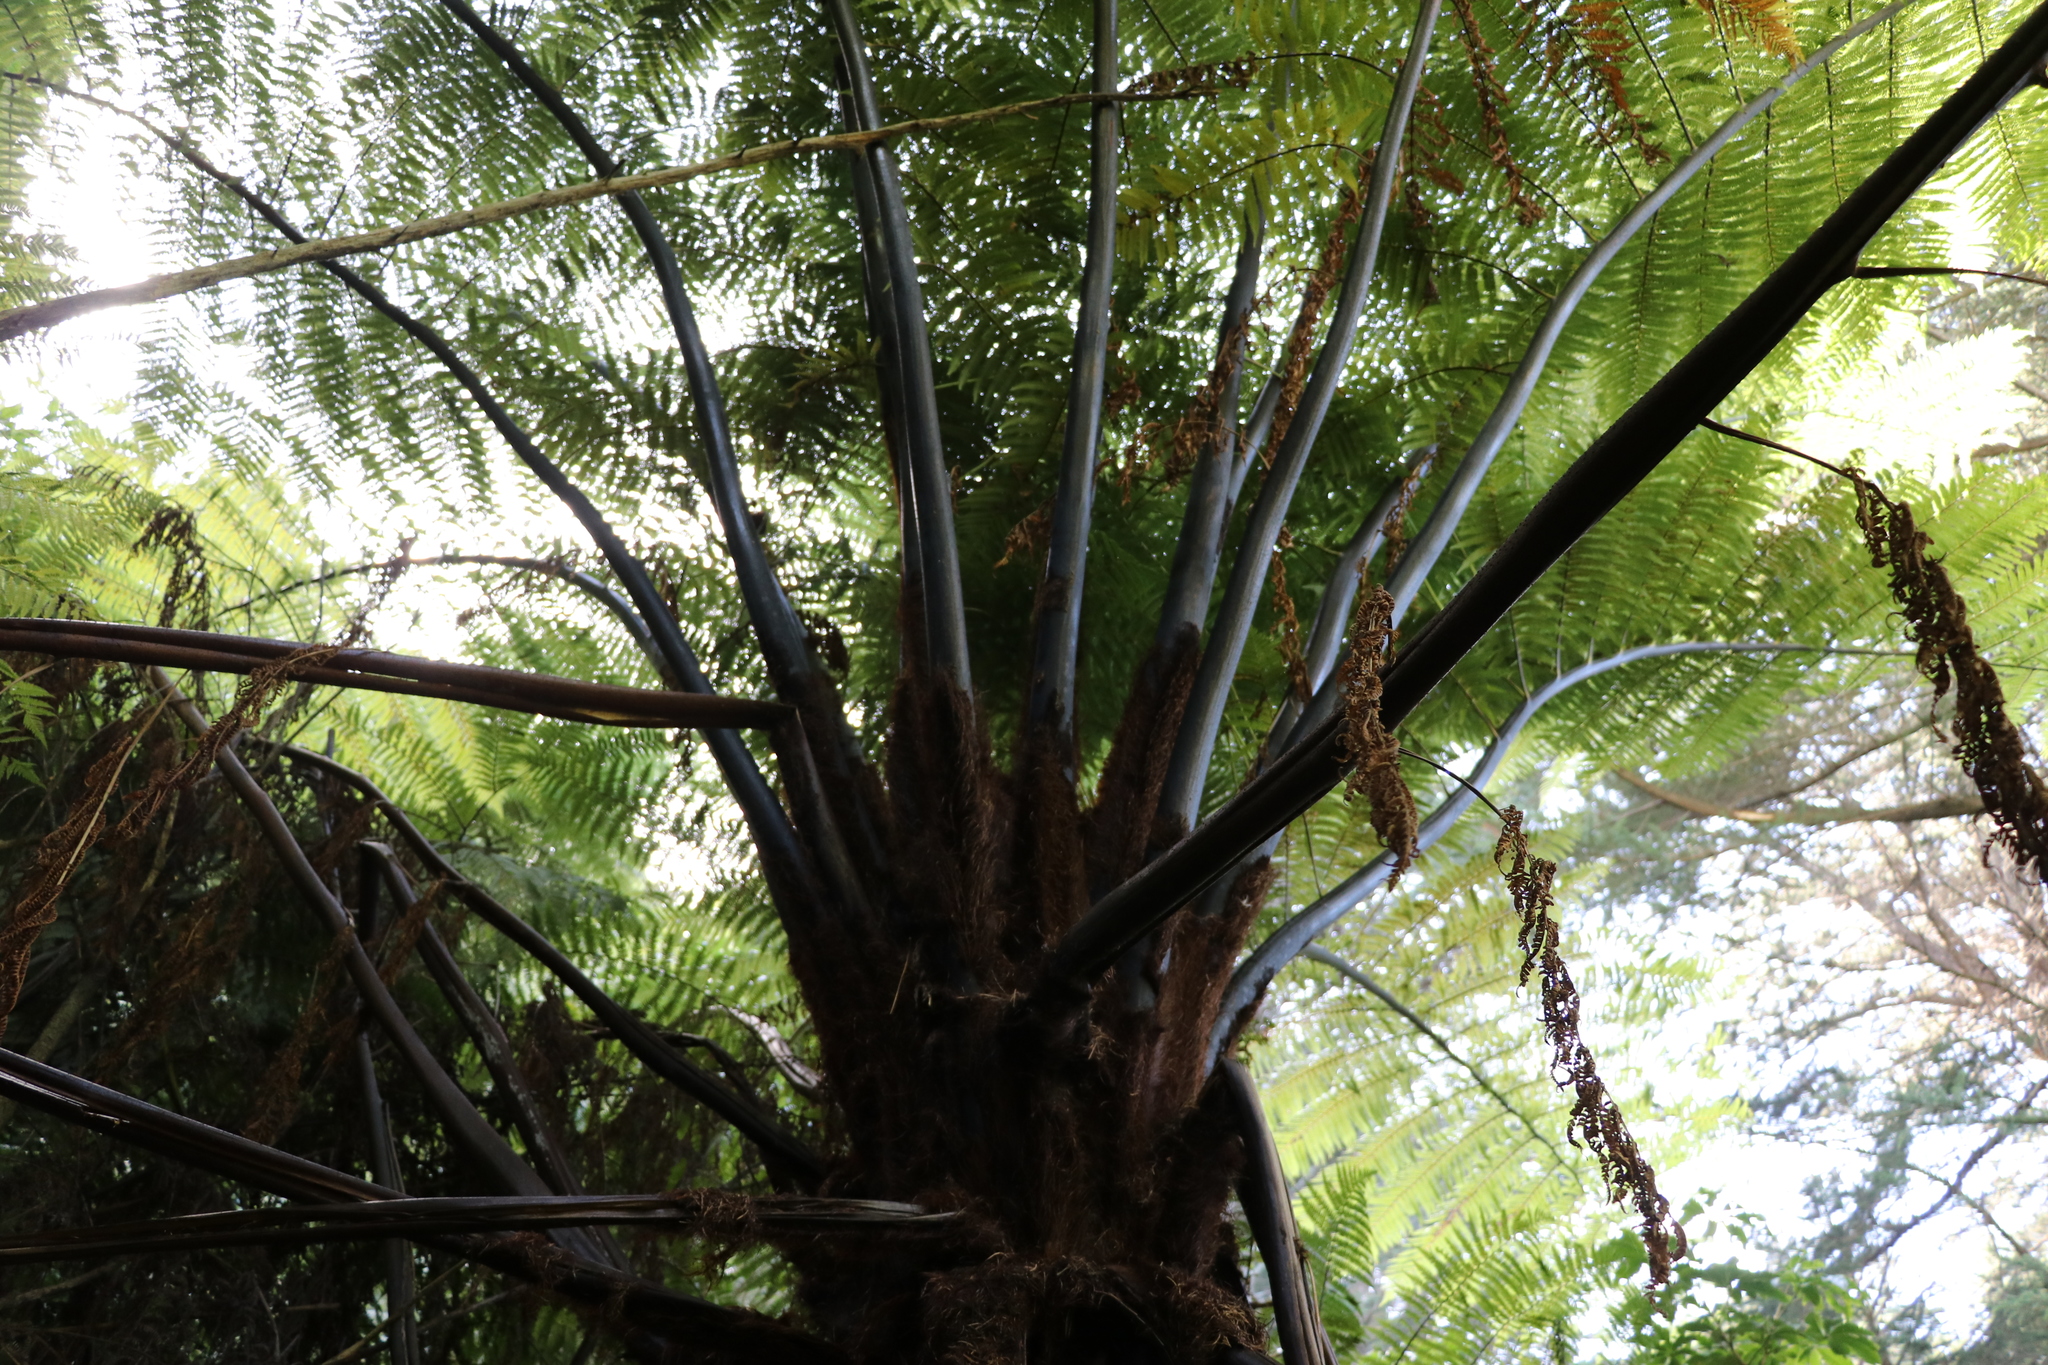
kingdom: Plantae
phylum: Tracheophyta
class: Polypodiopsida
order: Cyatheales
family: Cyatheaceae
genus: Sphaeropteris
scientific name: Sphaeropteris medullaris
